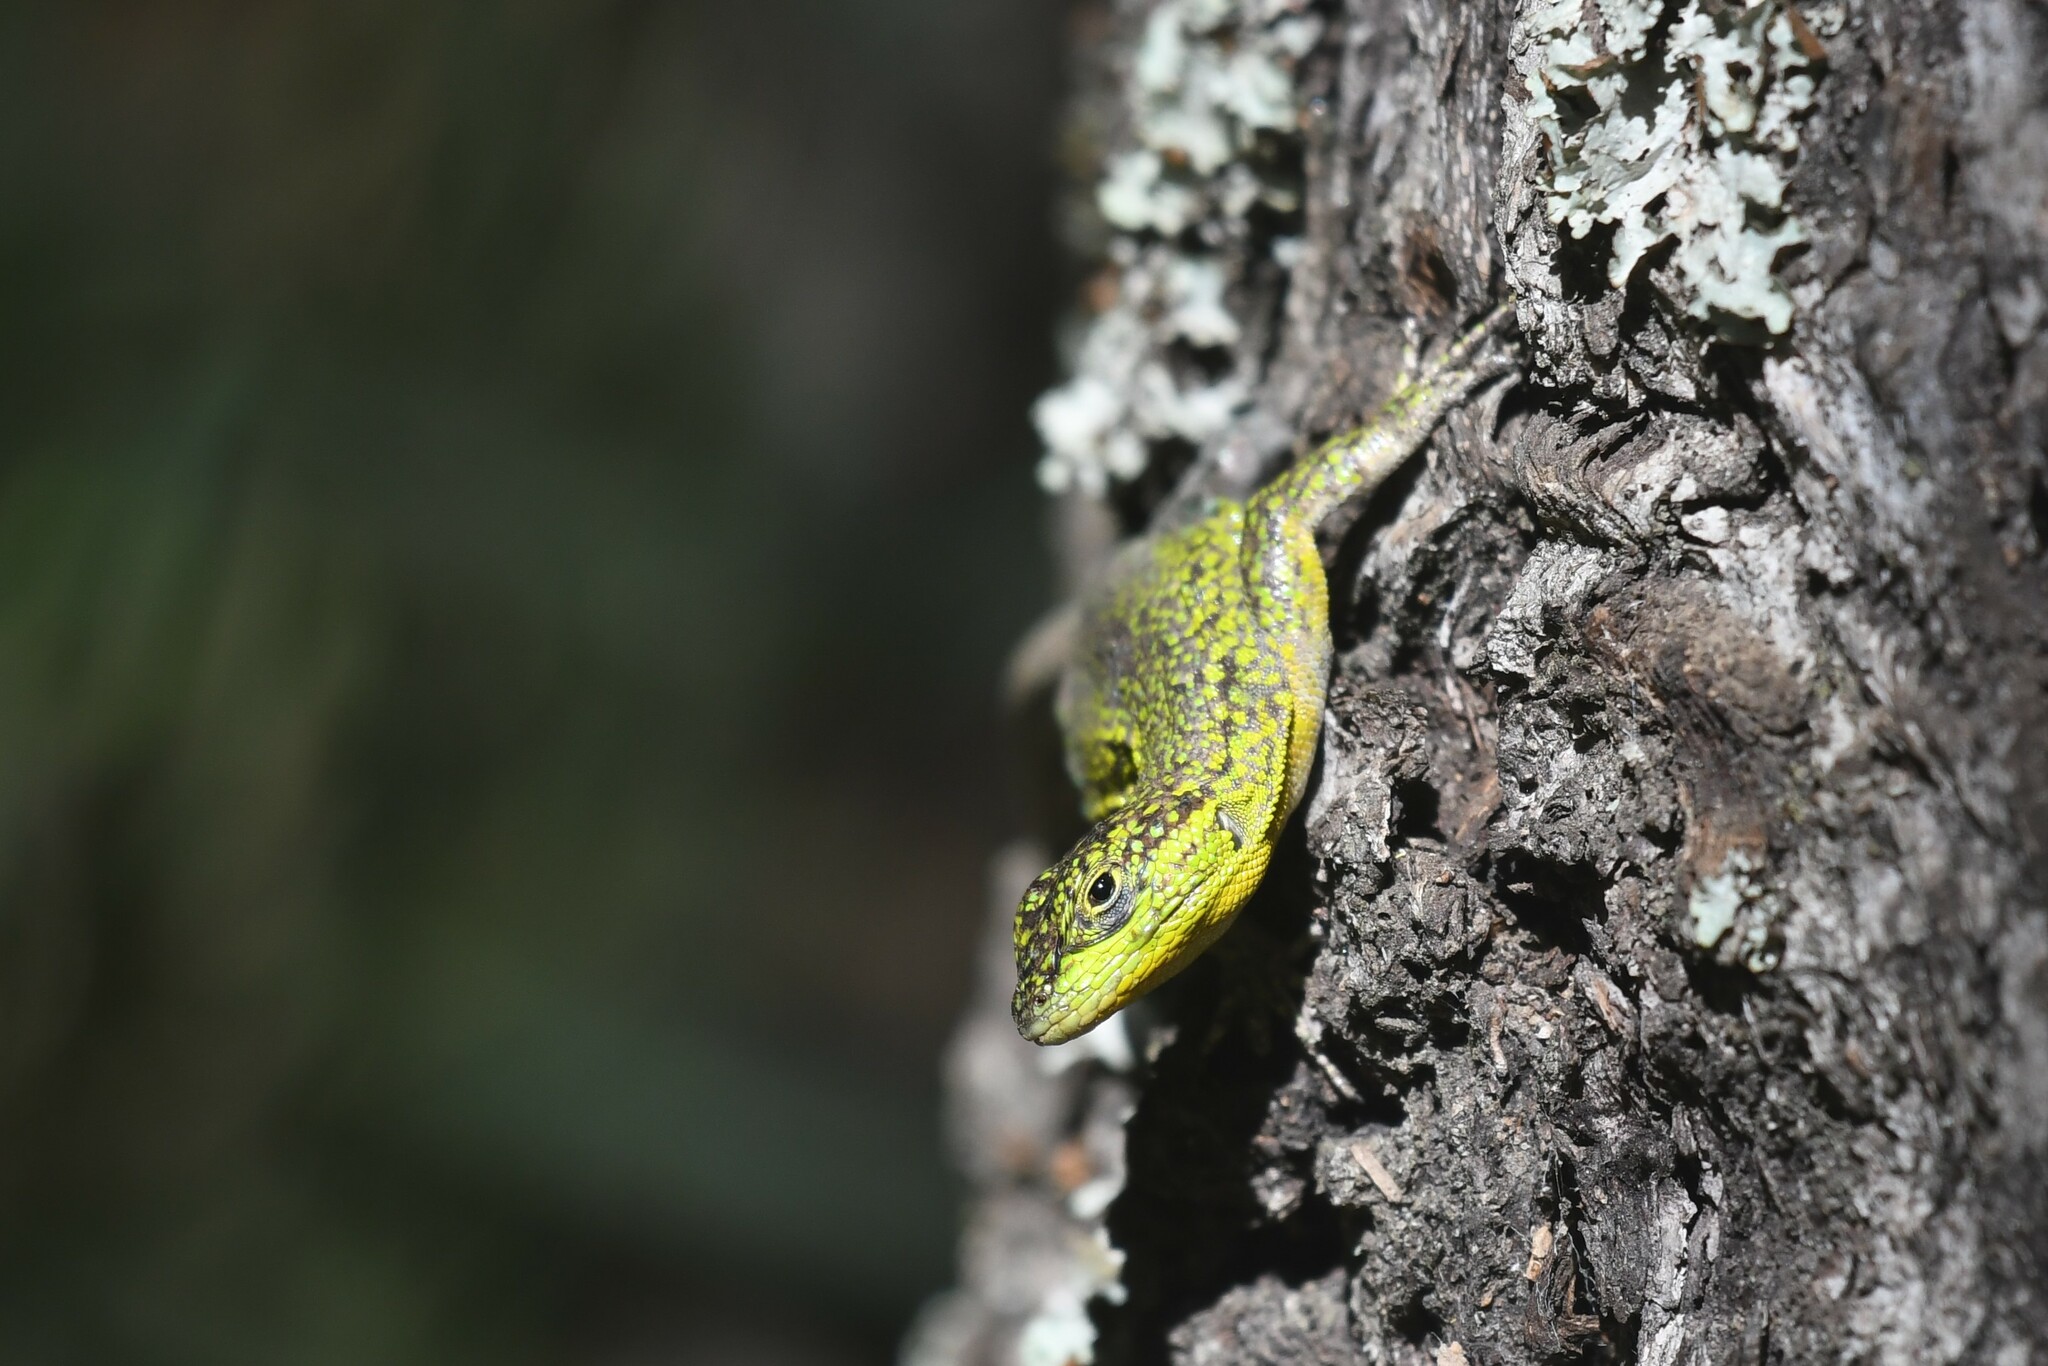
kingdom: Animalia
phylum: Chordata
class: Squamata
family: Liolaemidae
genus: Liolaemus
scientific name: Liolaemus tenuis
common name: Thin tree iguana
